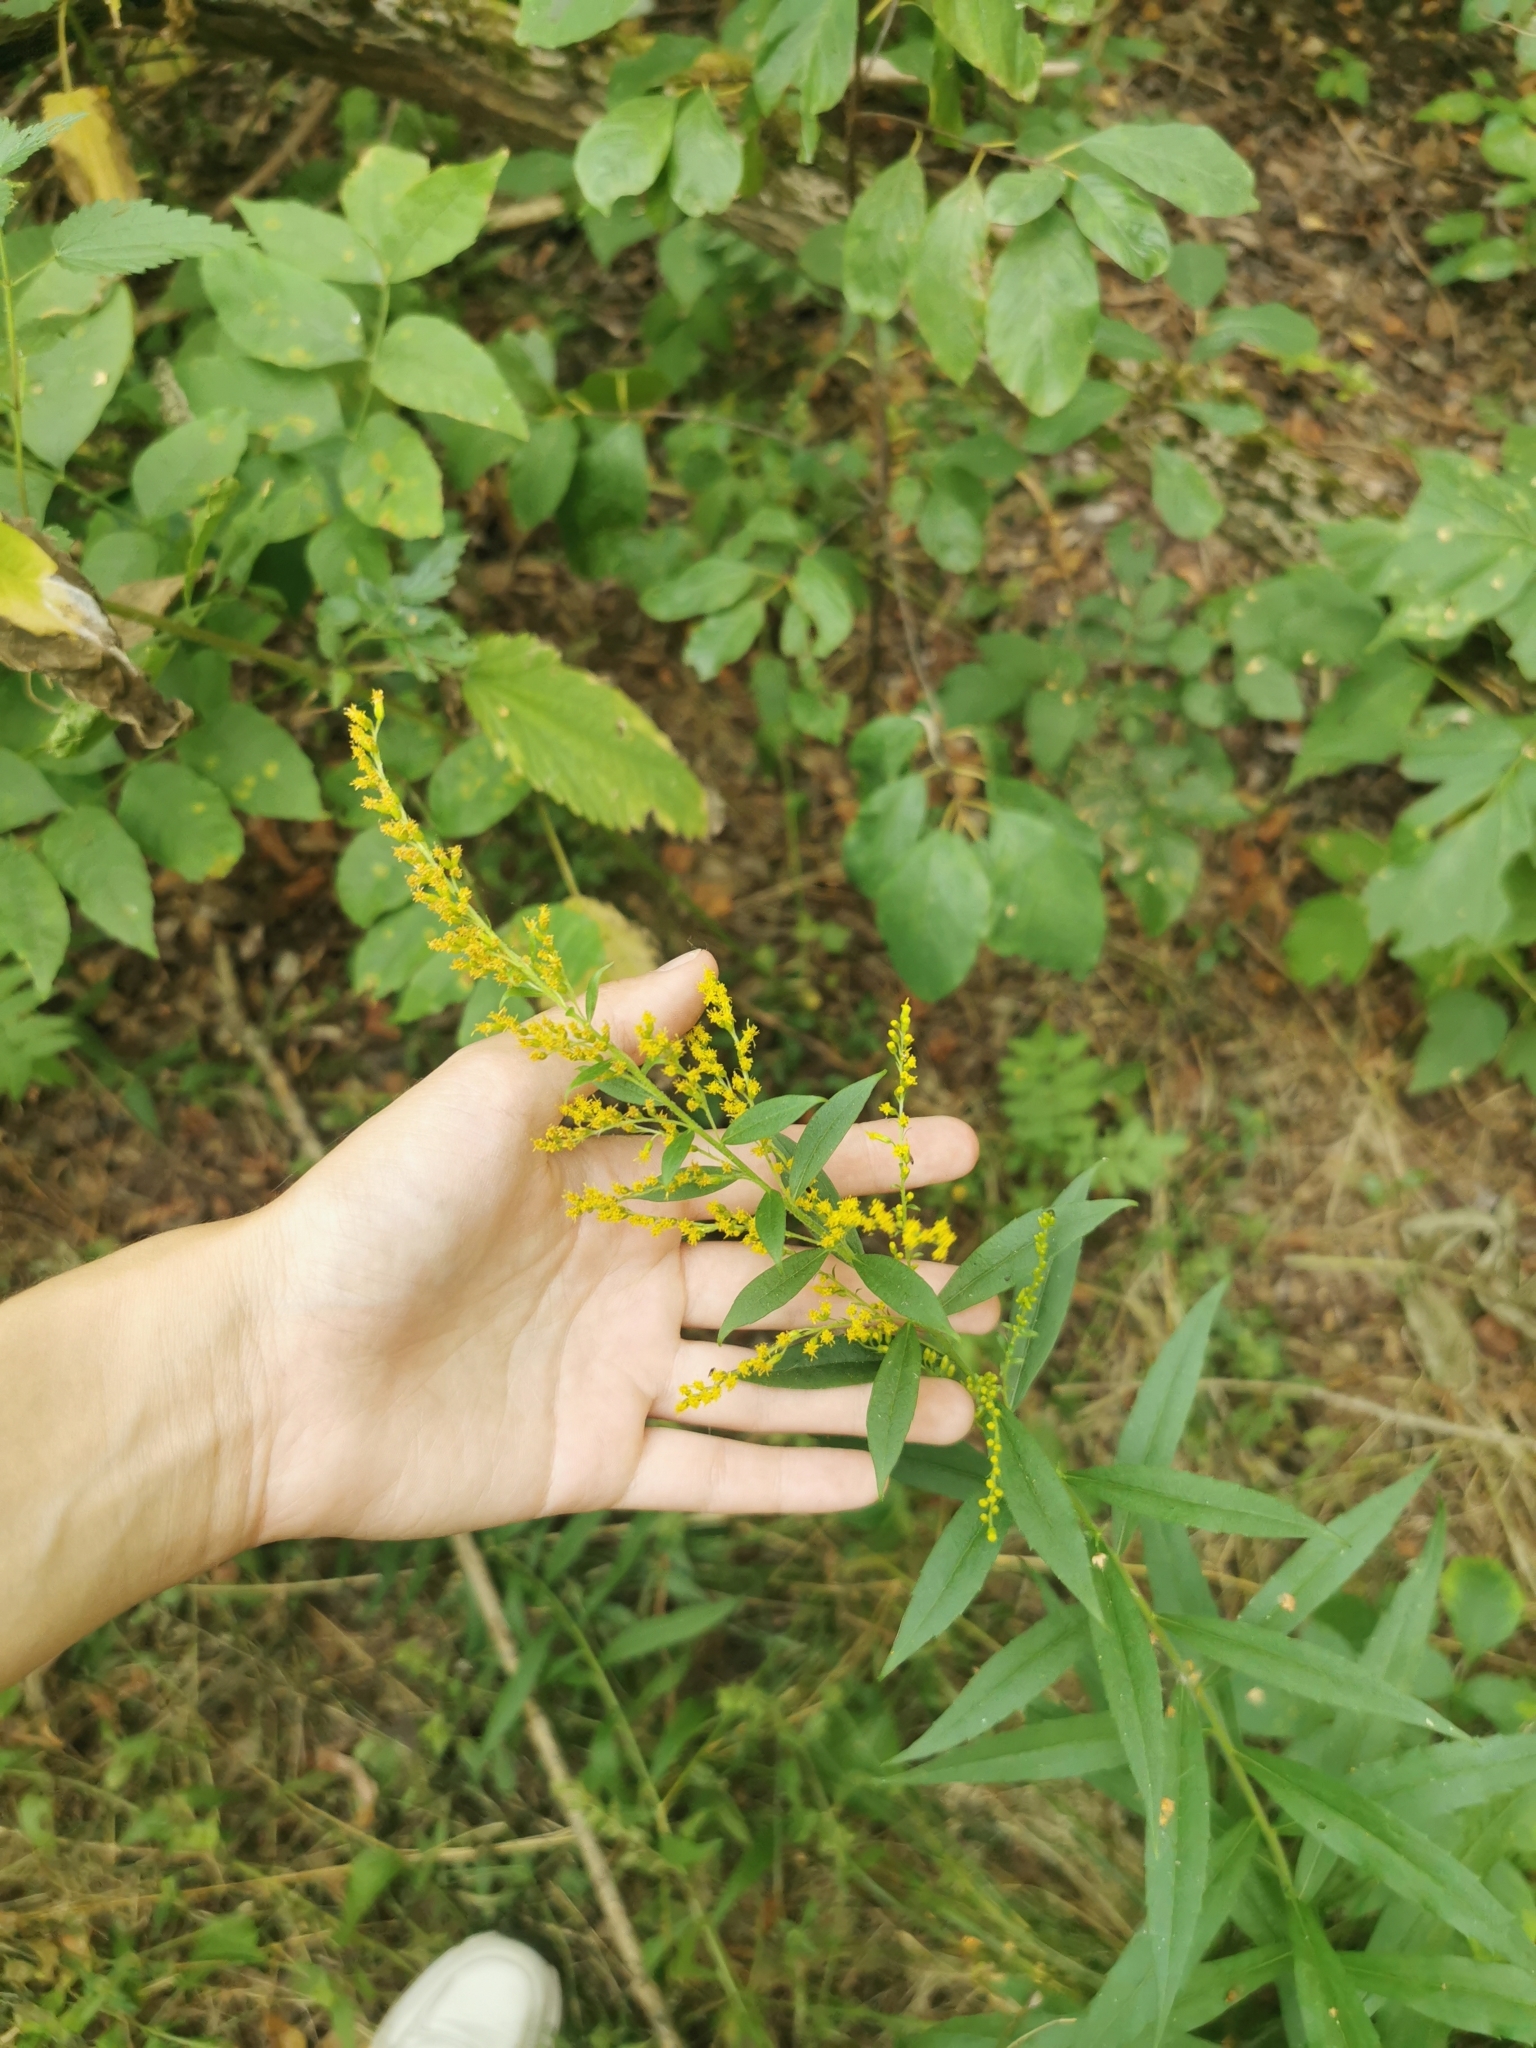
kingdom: Plantae
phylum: Tracheophyta
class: Magnoliopsida
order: Asterales
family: Asteraceae
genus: Solidago
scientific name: Solidago canadensis
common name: Canada goldenrod
